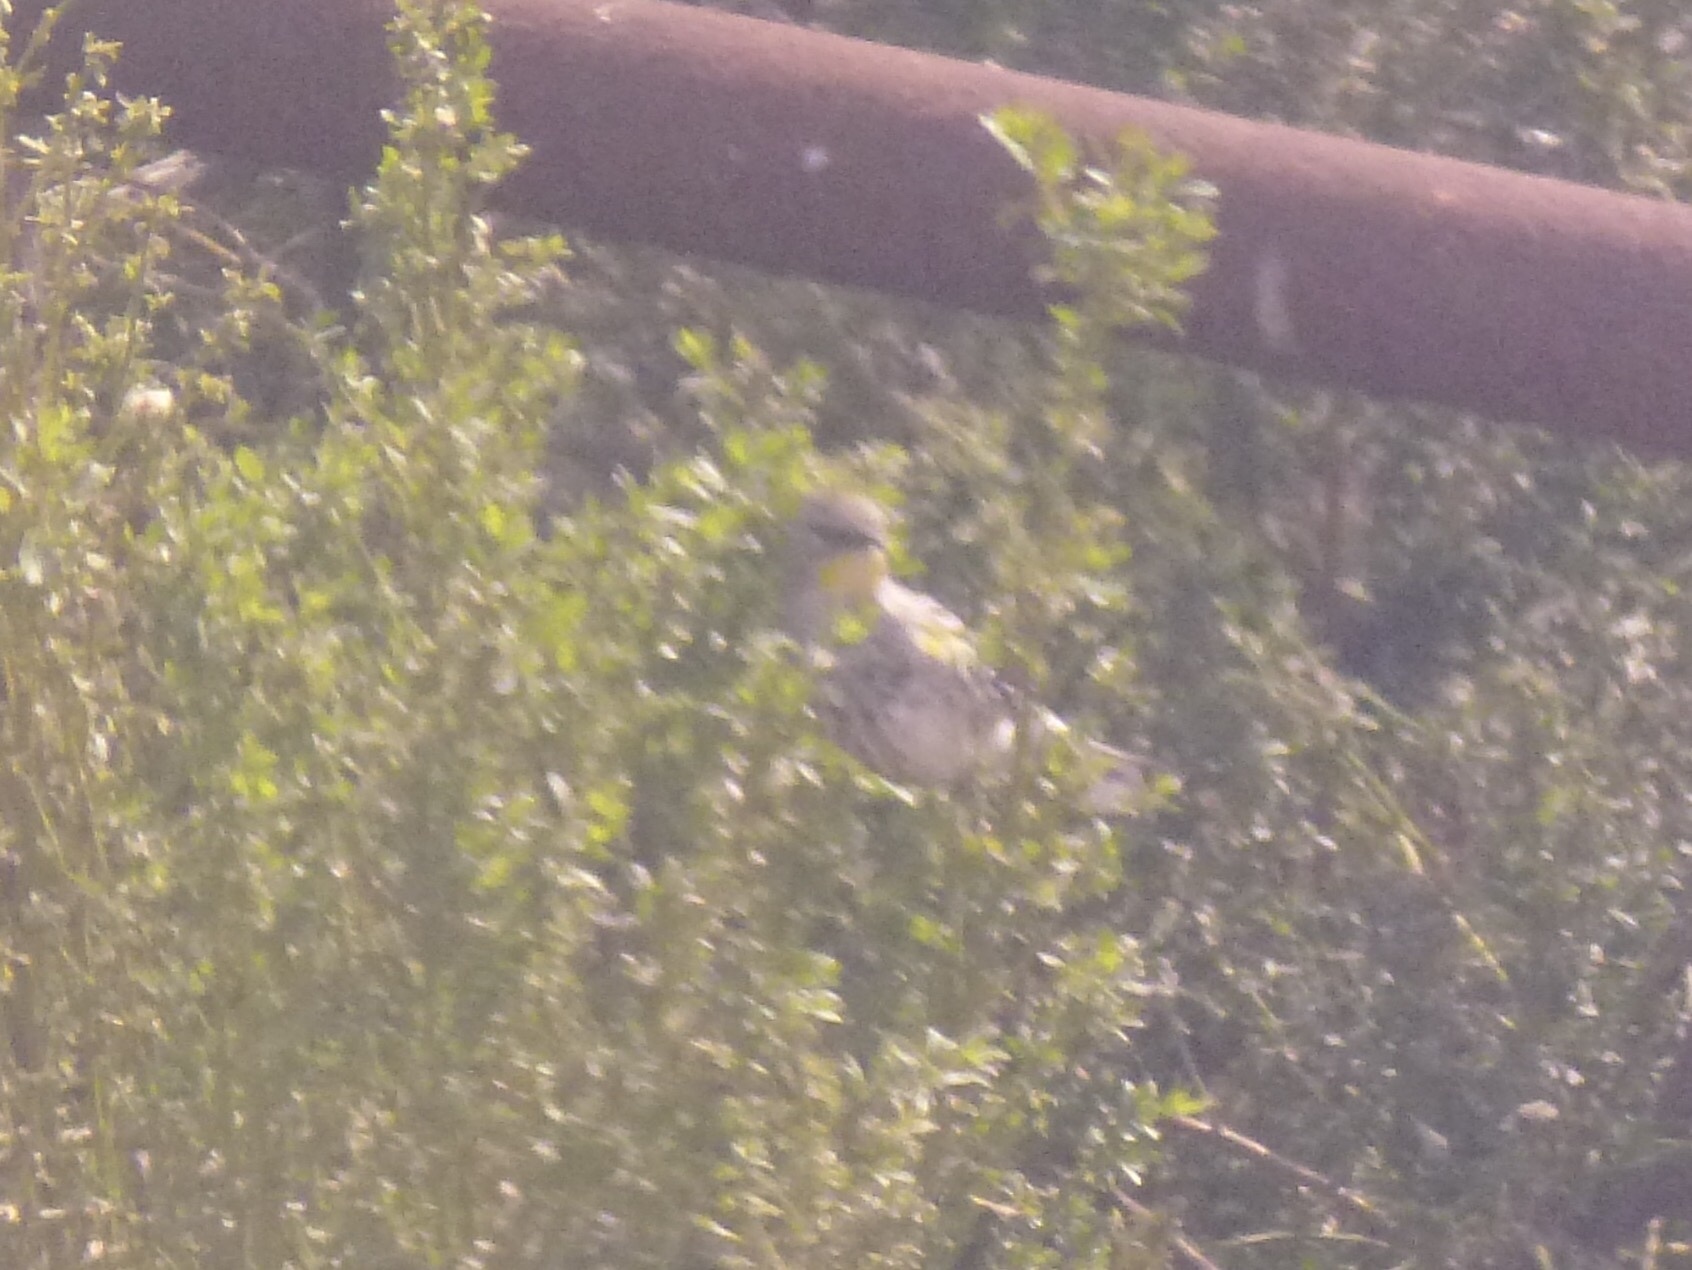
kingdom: Animalia
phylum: Chordata
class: Aves
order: Passeriformes
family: Parulidae
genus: Setophaga
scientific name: Setophaga coronata
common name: Myrtle warbler
